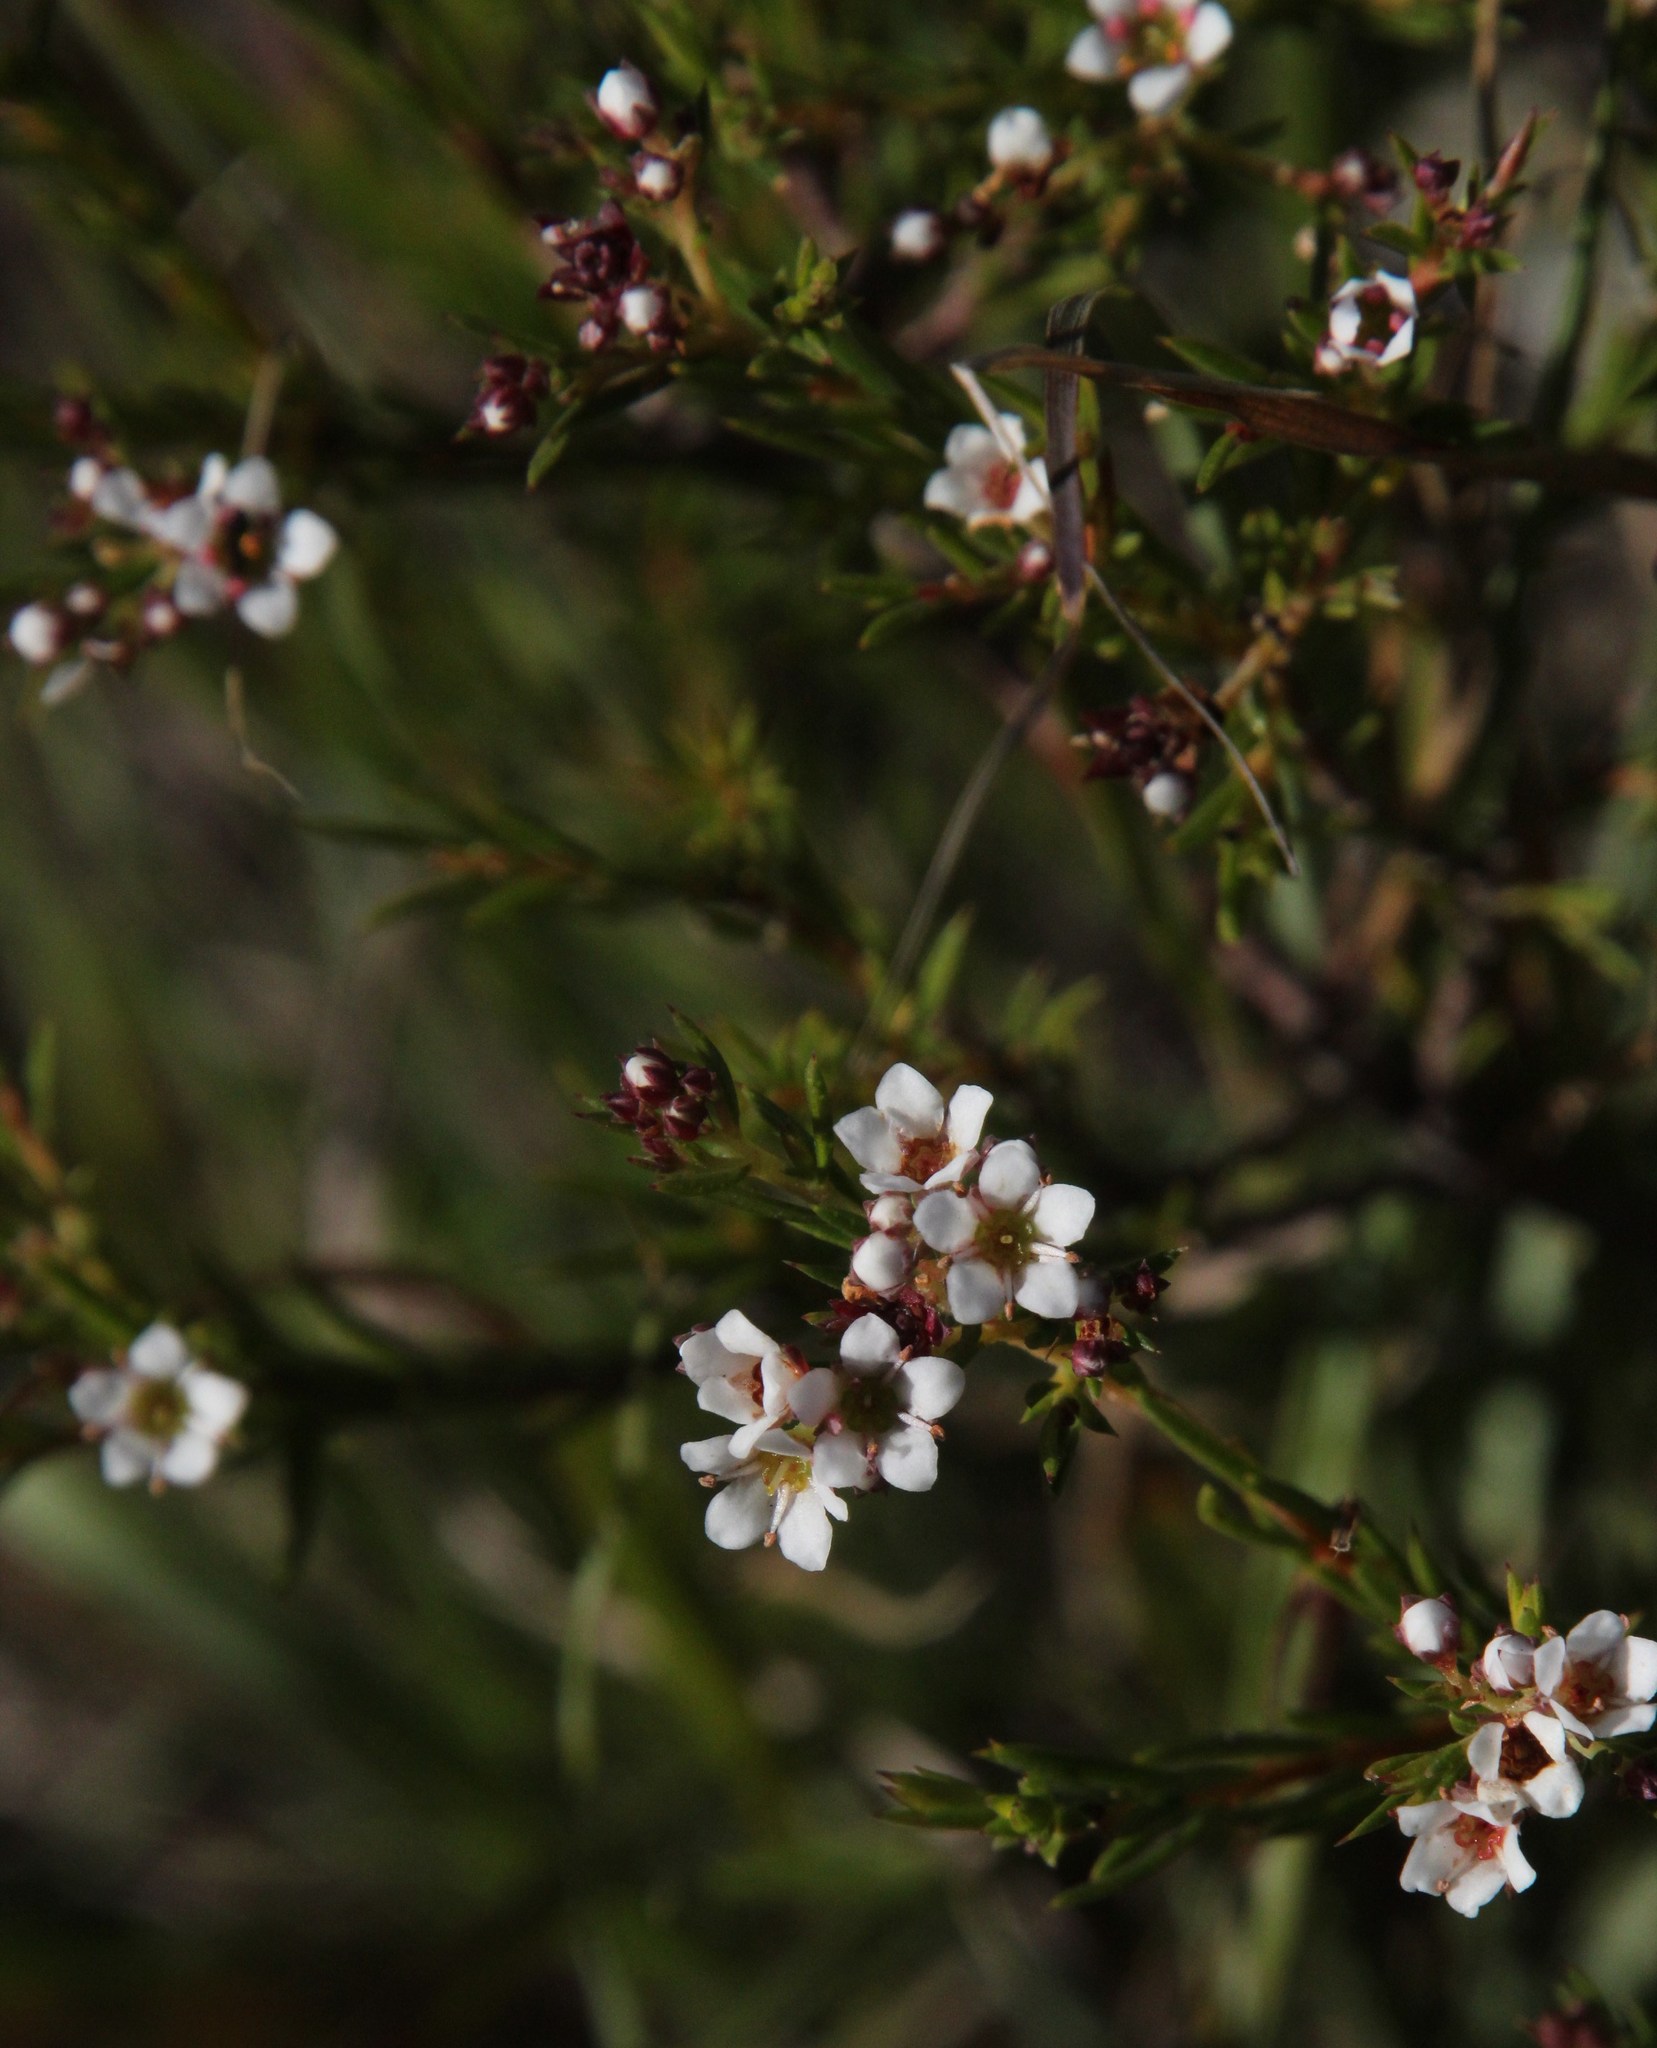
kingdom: Plantae
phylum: Tracheophyta
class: Magnoliopsida
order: Sapindales
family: Rutaceae
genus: Diosma
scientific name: Diosma hirsuta
